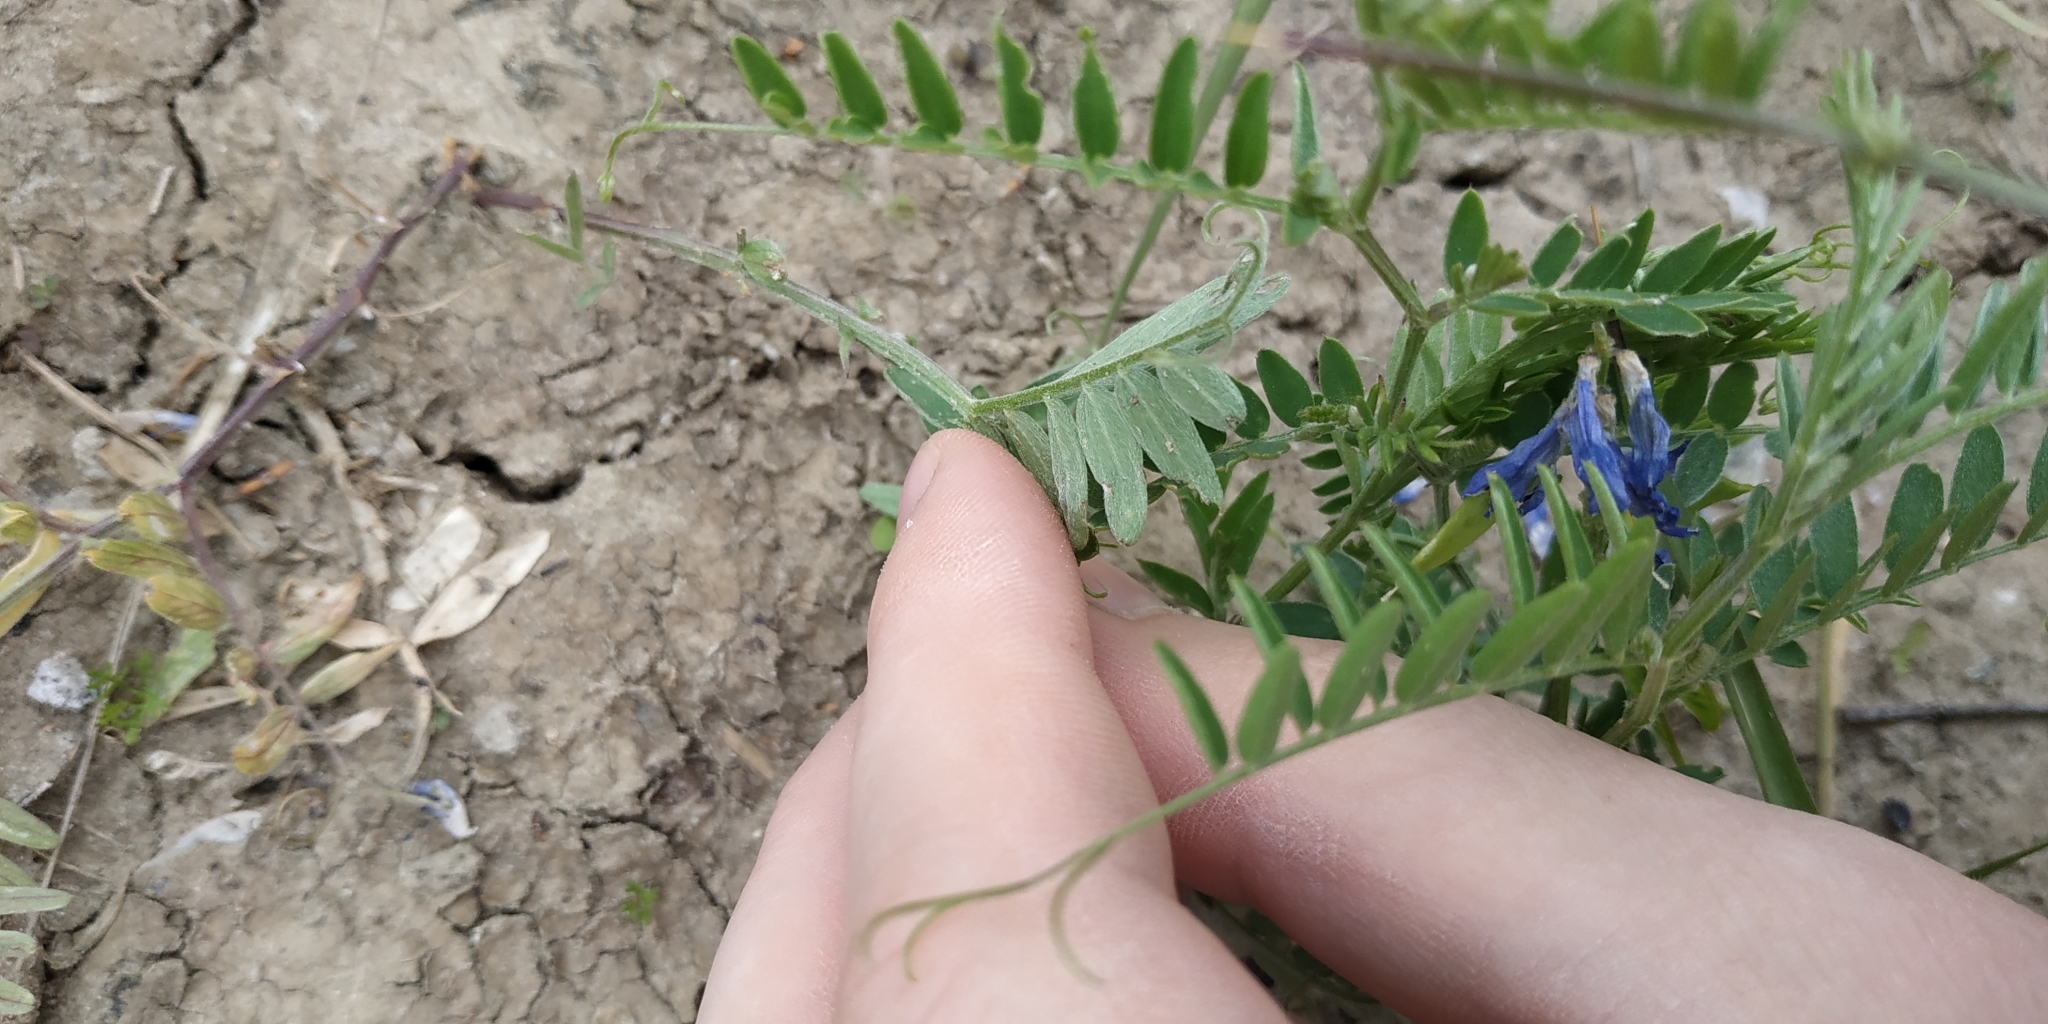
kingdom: Plantae
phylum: Tracheophyta
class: Magnoliopsida
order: Fabales
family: Fabaceae
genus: Vicia
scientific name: Vicia cracca
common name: Bird vetch
